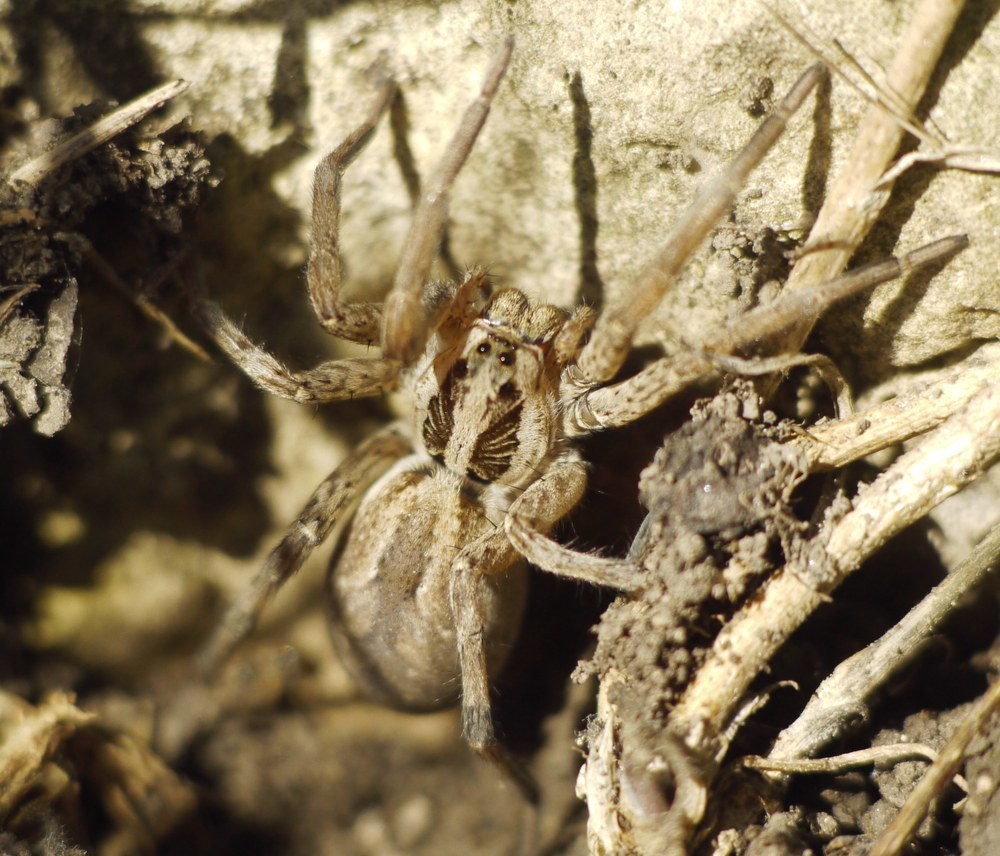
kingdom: Animalia
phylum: Arthropoda
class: Arachnida
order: Araneae
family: Lycosidae
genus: Hogna
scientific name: Hogna radiata
